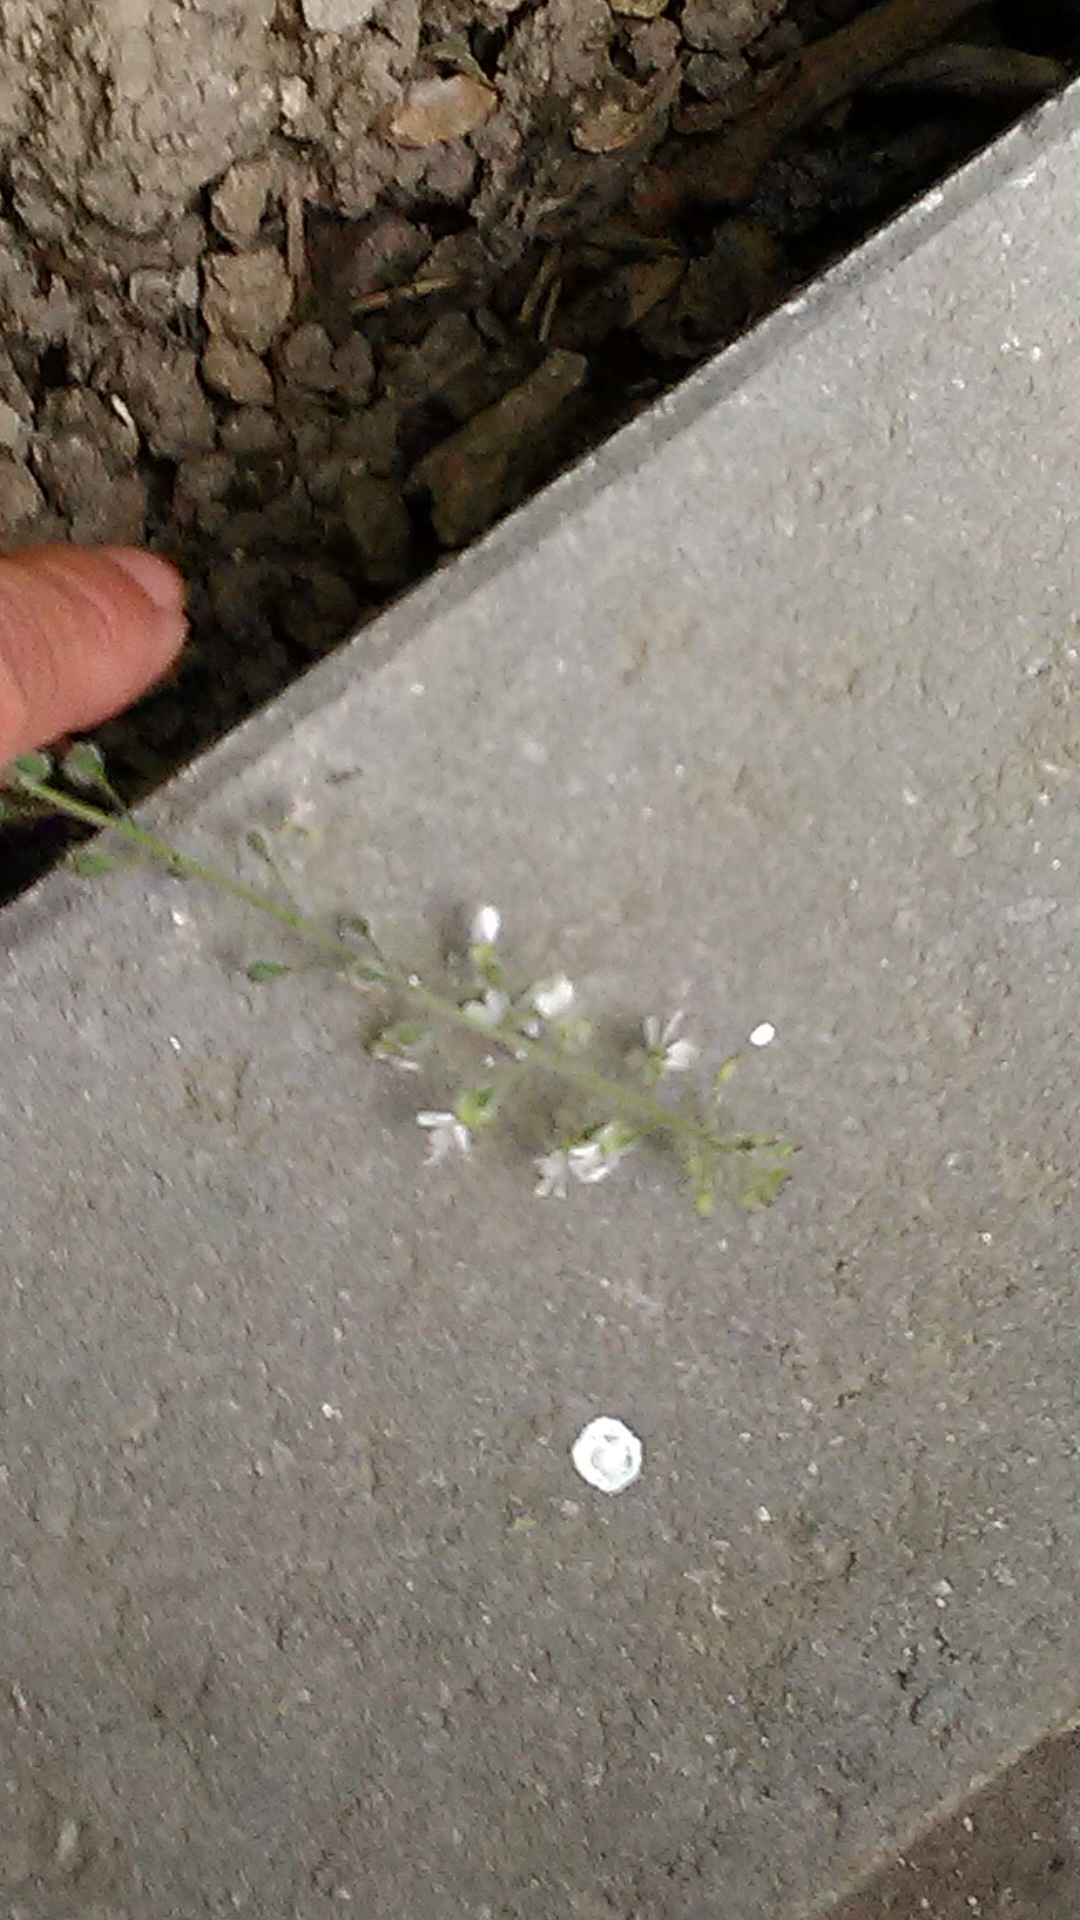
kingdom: Plantae
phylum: Tracheophyta
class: Magnoliopsida
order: Myrtales
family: Onagraceae
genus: Circaea
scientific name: Circaea lutetiana
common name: Enchanter's-nightshade
